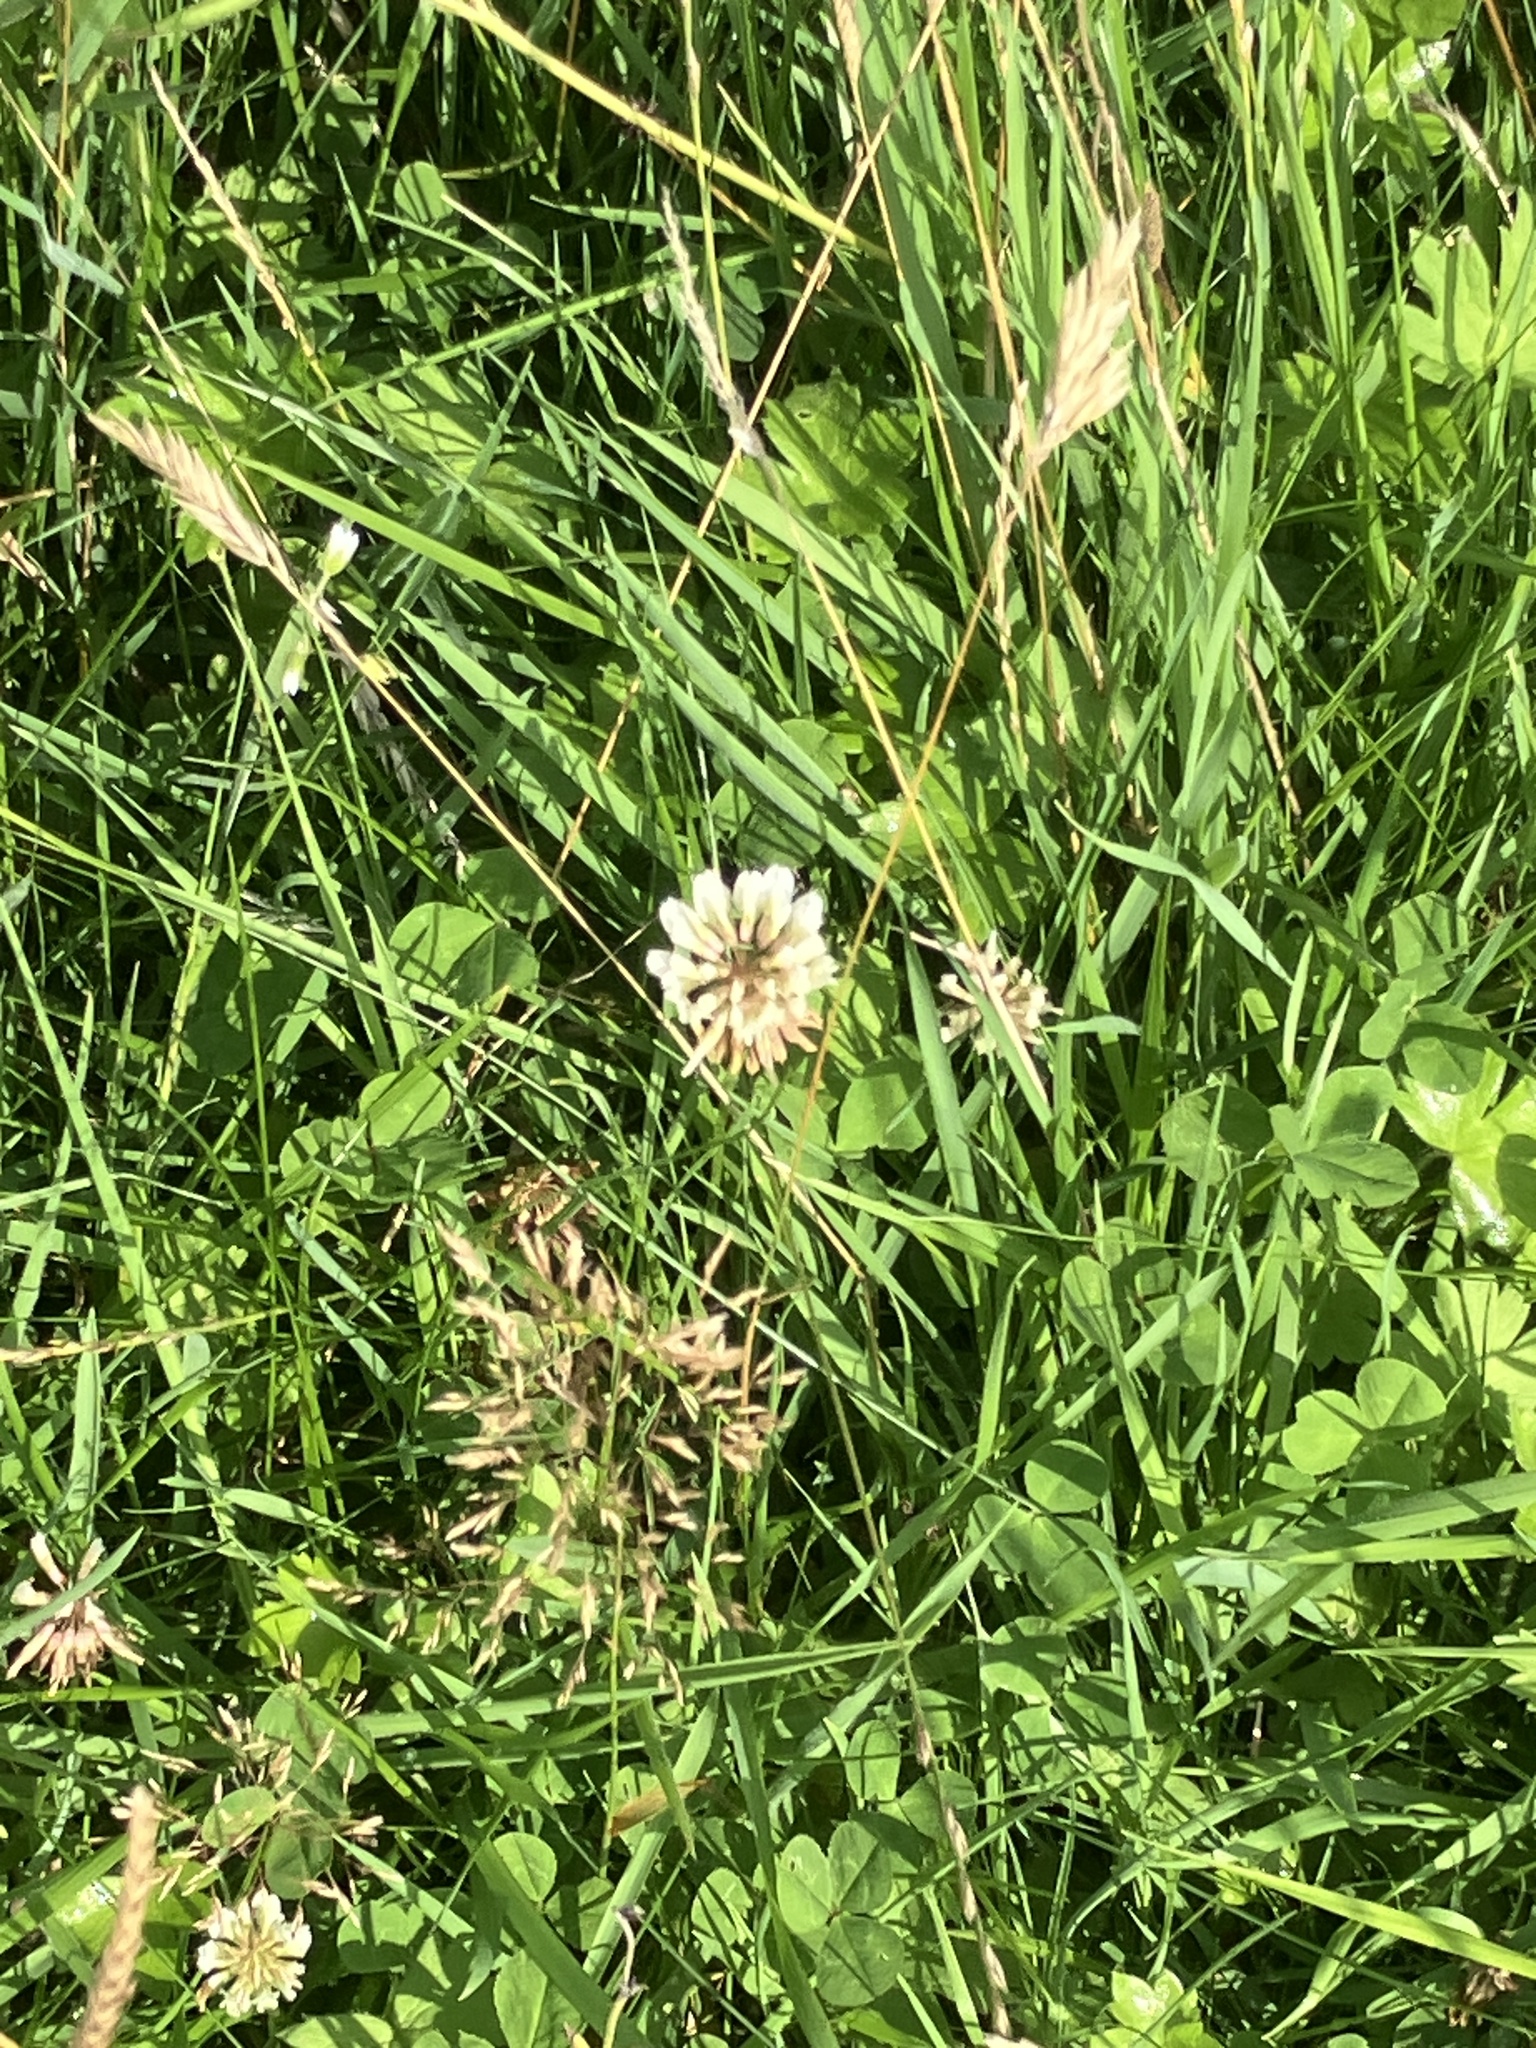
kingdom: Plantae
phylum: Tracheophyta
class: Magnoliopsida
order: Fabales
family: Fabaceae
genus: Trifolium
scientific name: Trifolium repens
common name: White clover
